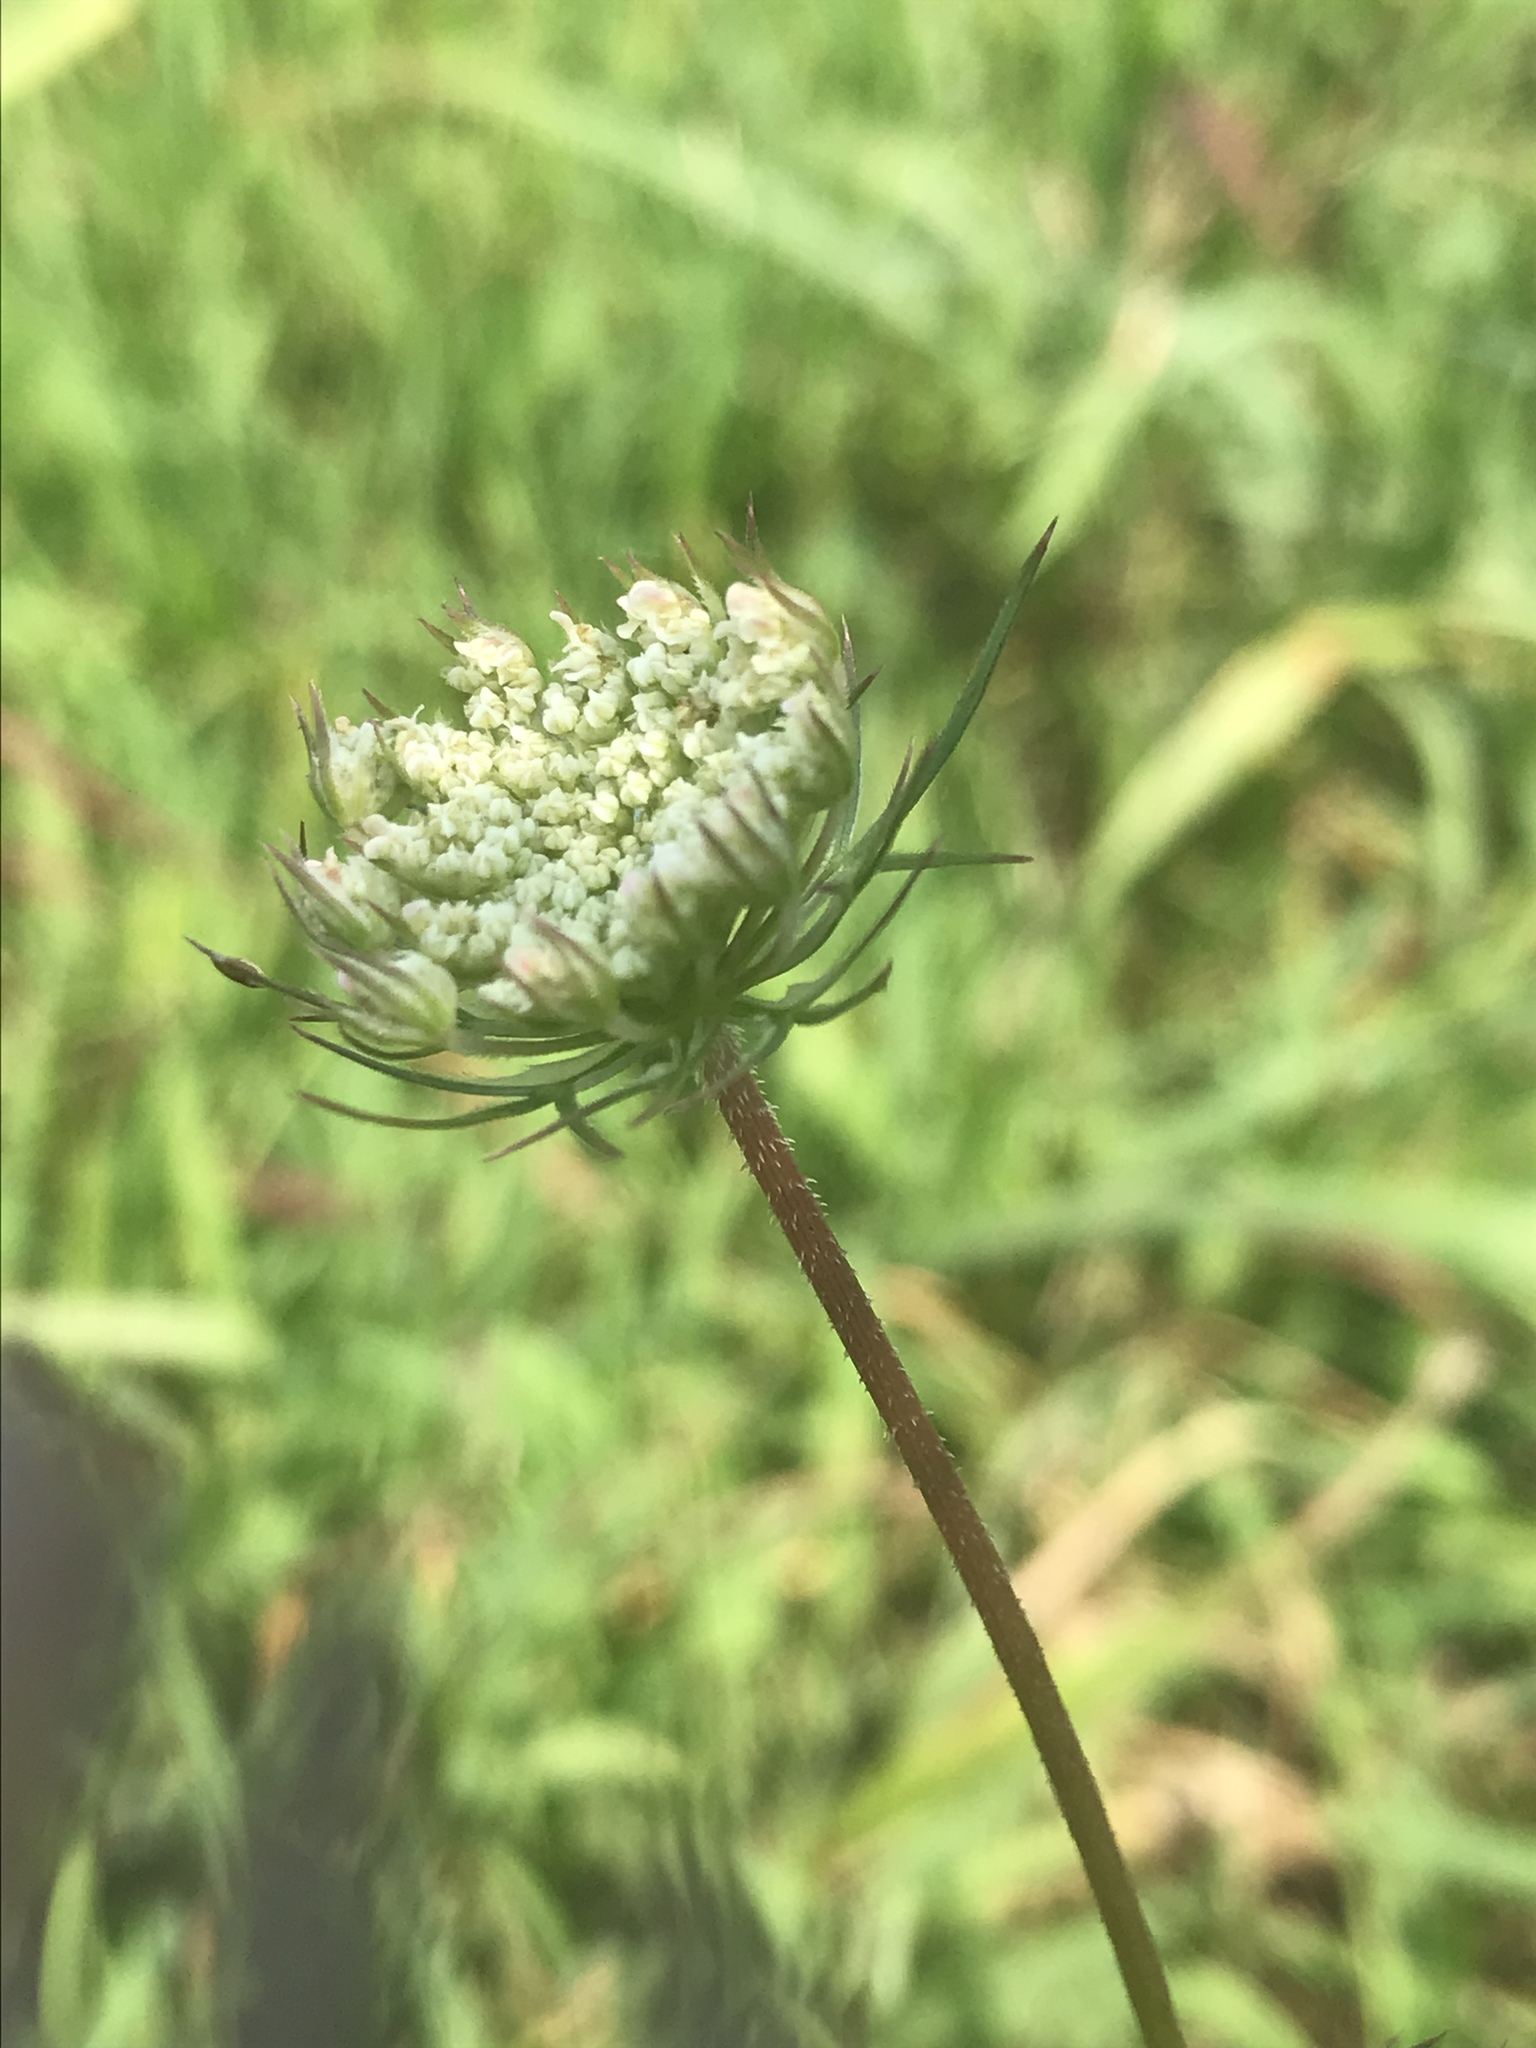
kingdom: Plantae
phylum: Tracheophyta
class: Magnoliopsida
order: Apiales
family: Apiaceae
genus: Daucus
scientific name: Daucus carota
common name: Wild carrot
